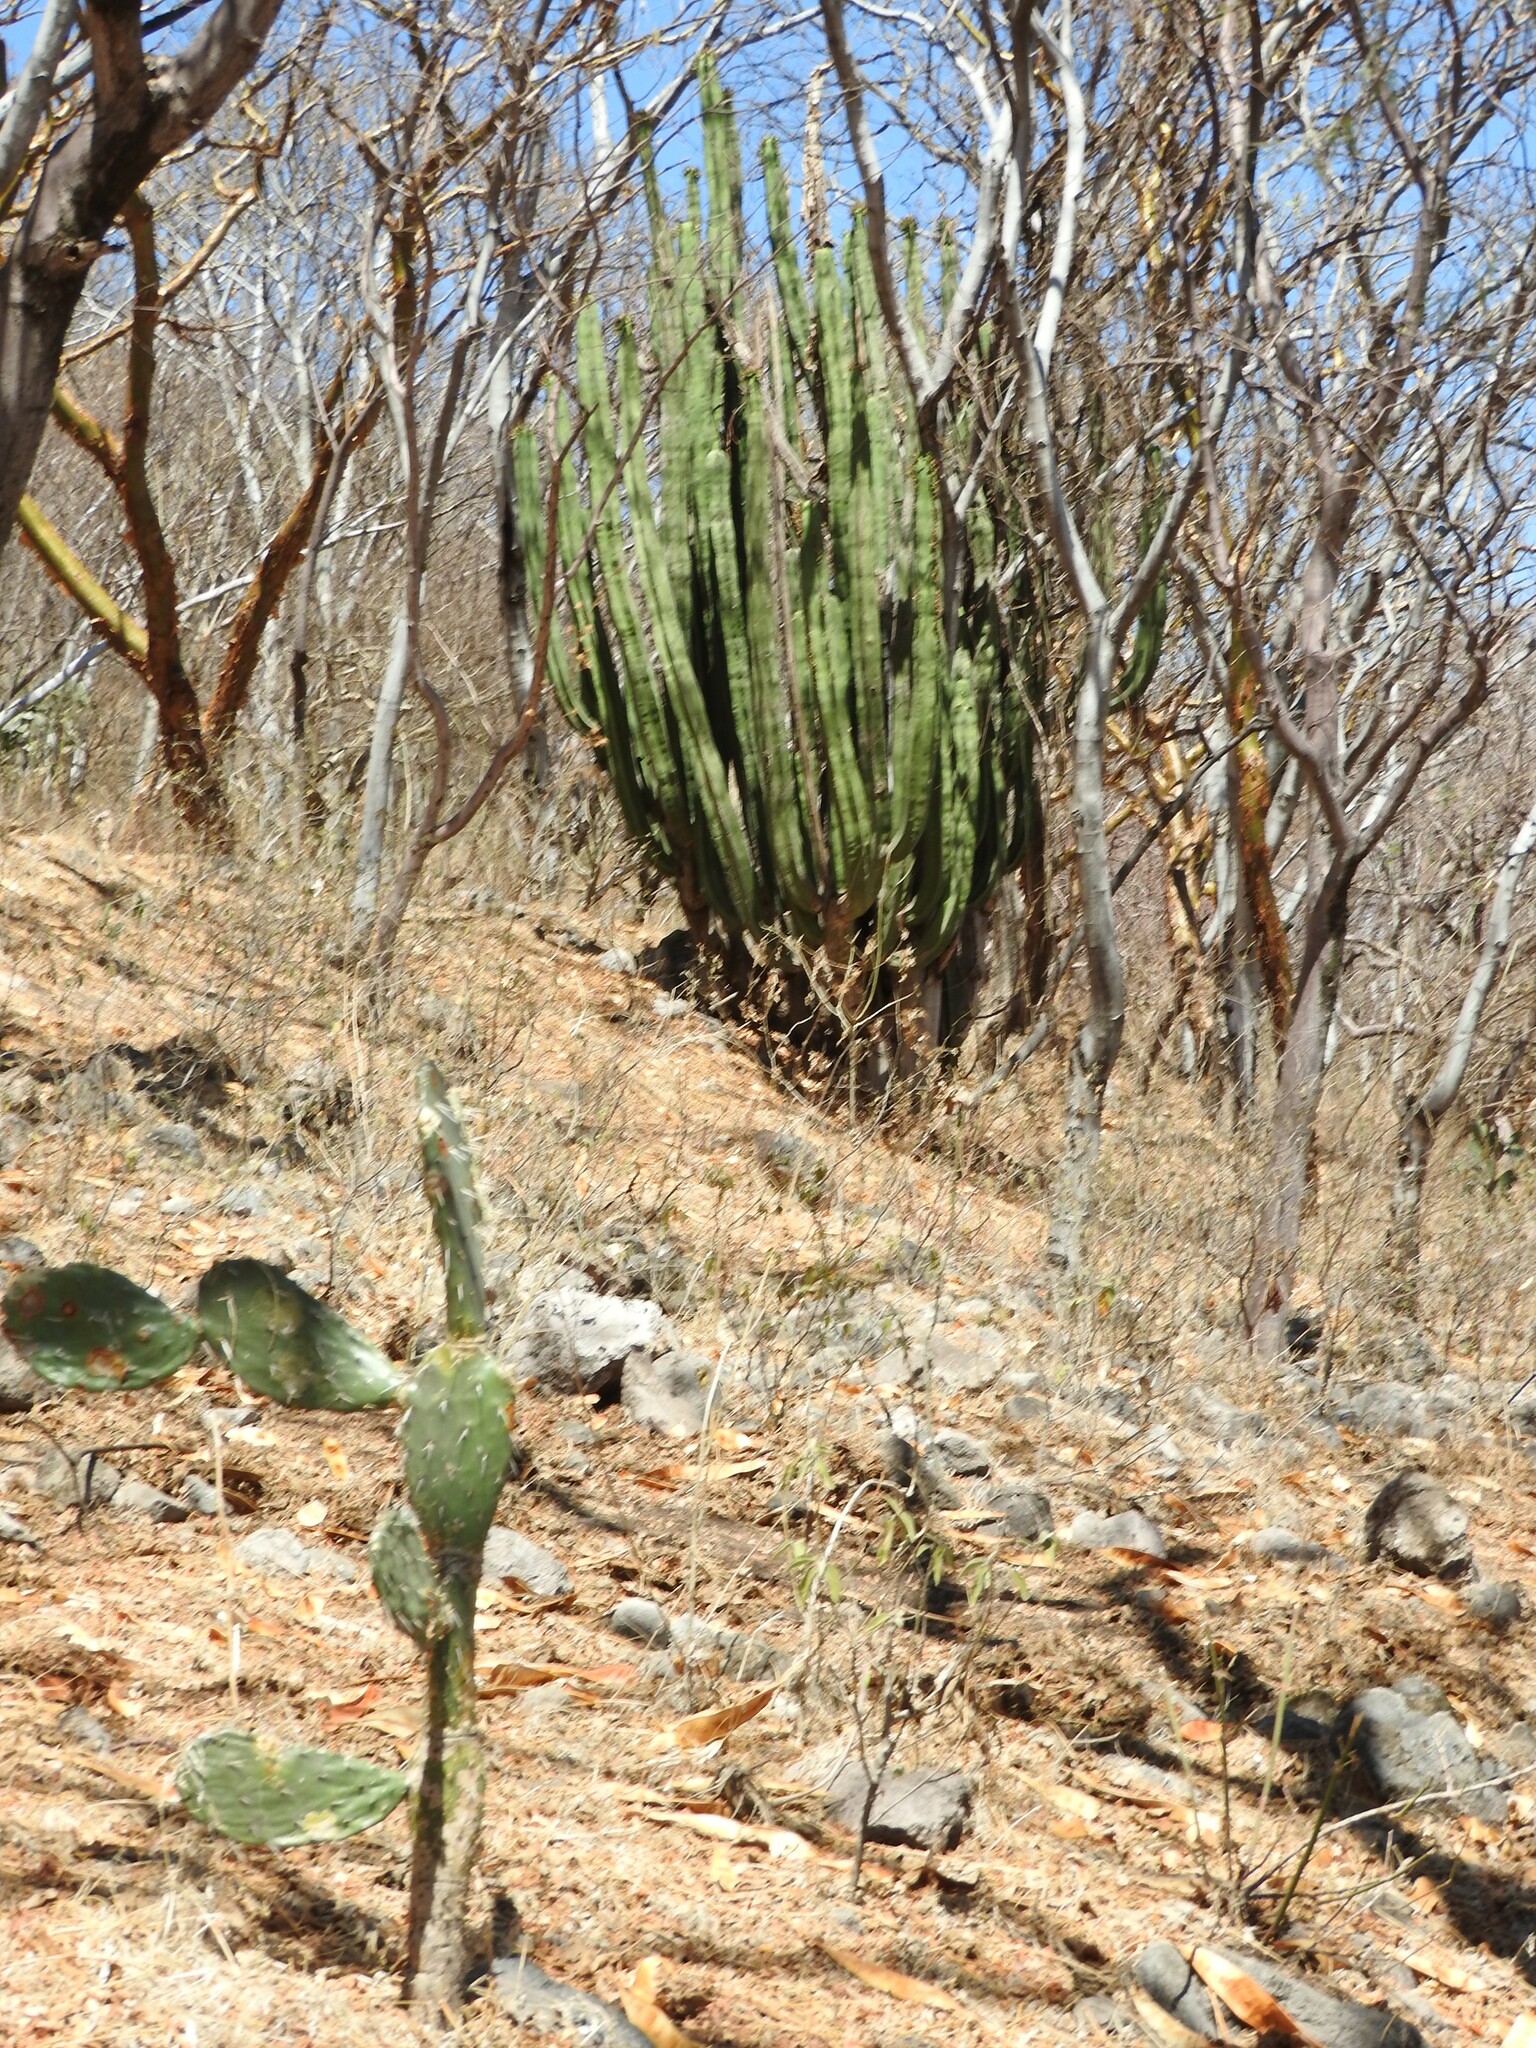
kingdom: Plantae
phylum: Tracheophyta
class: Magnoliopsida
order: Caryophyllales
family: Cactaceae
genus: Stenocereus
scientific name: Stenocereus dumortieri
